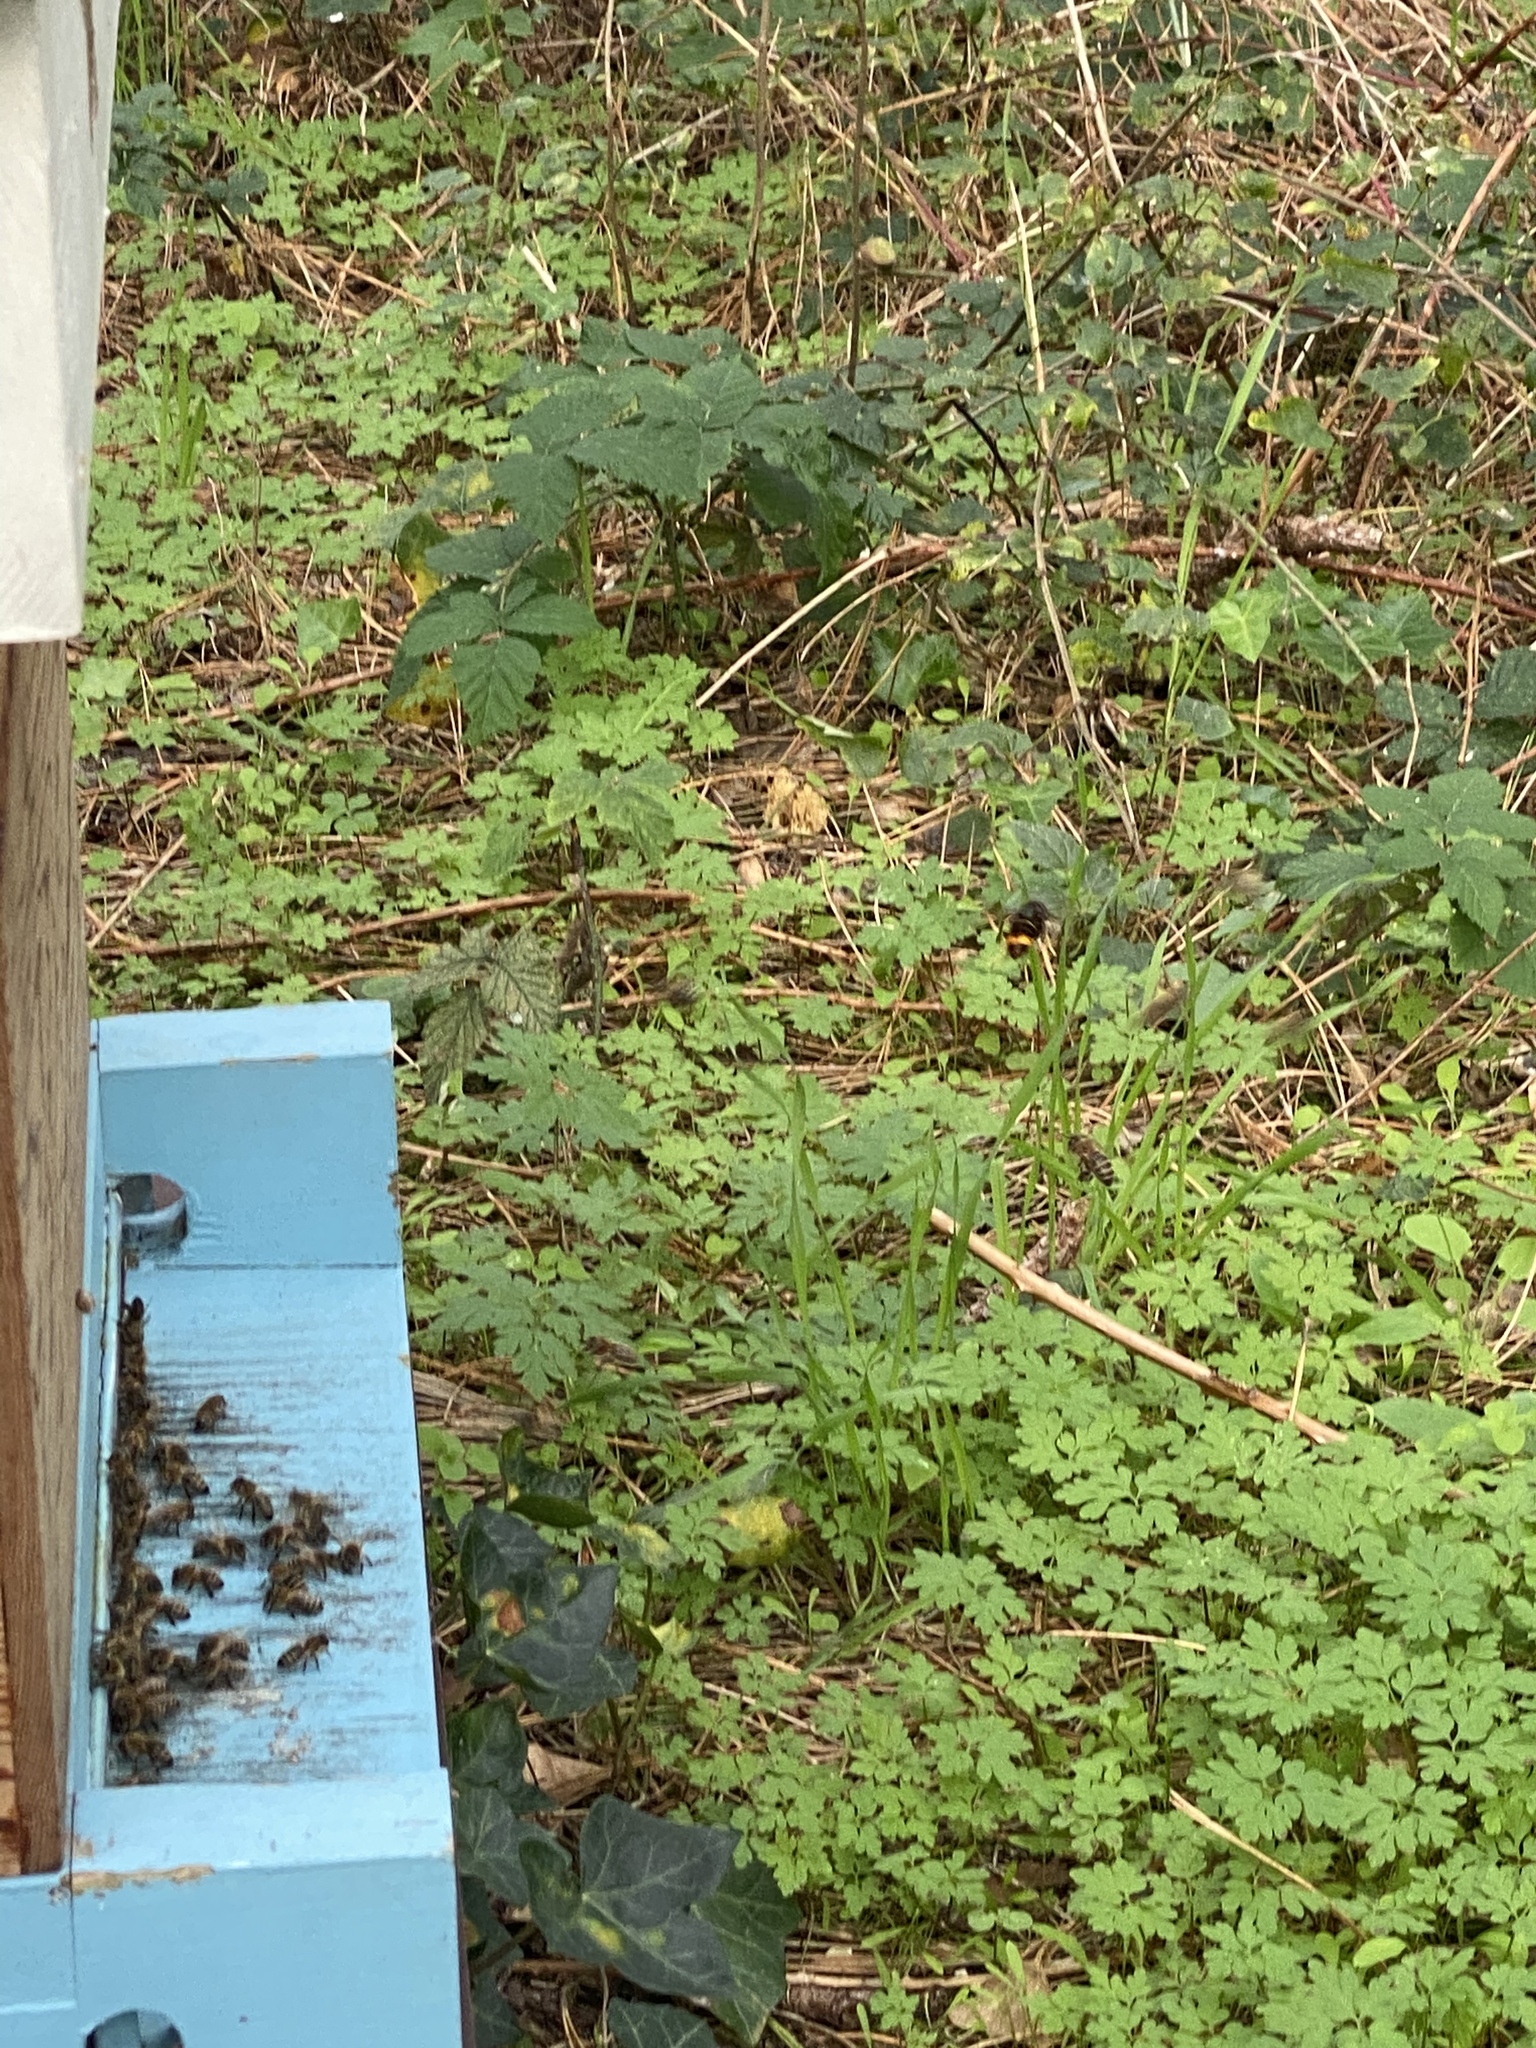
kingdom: Animalia
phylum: Arthropoda
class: Insecta
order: Hymenoptera
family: Vespidae
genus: Vespa
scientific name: Vespa velutina
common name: Asian hornet
